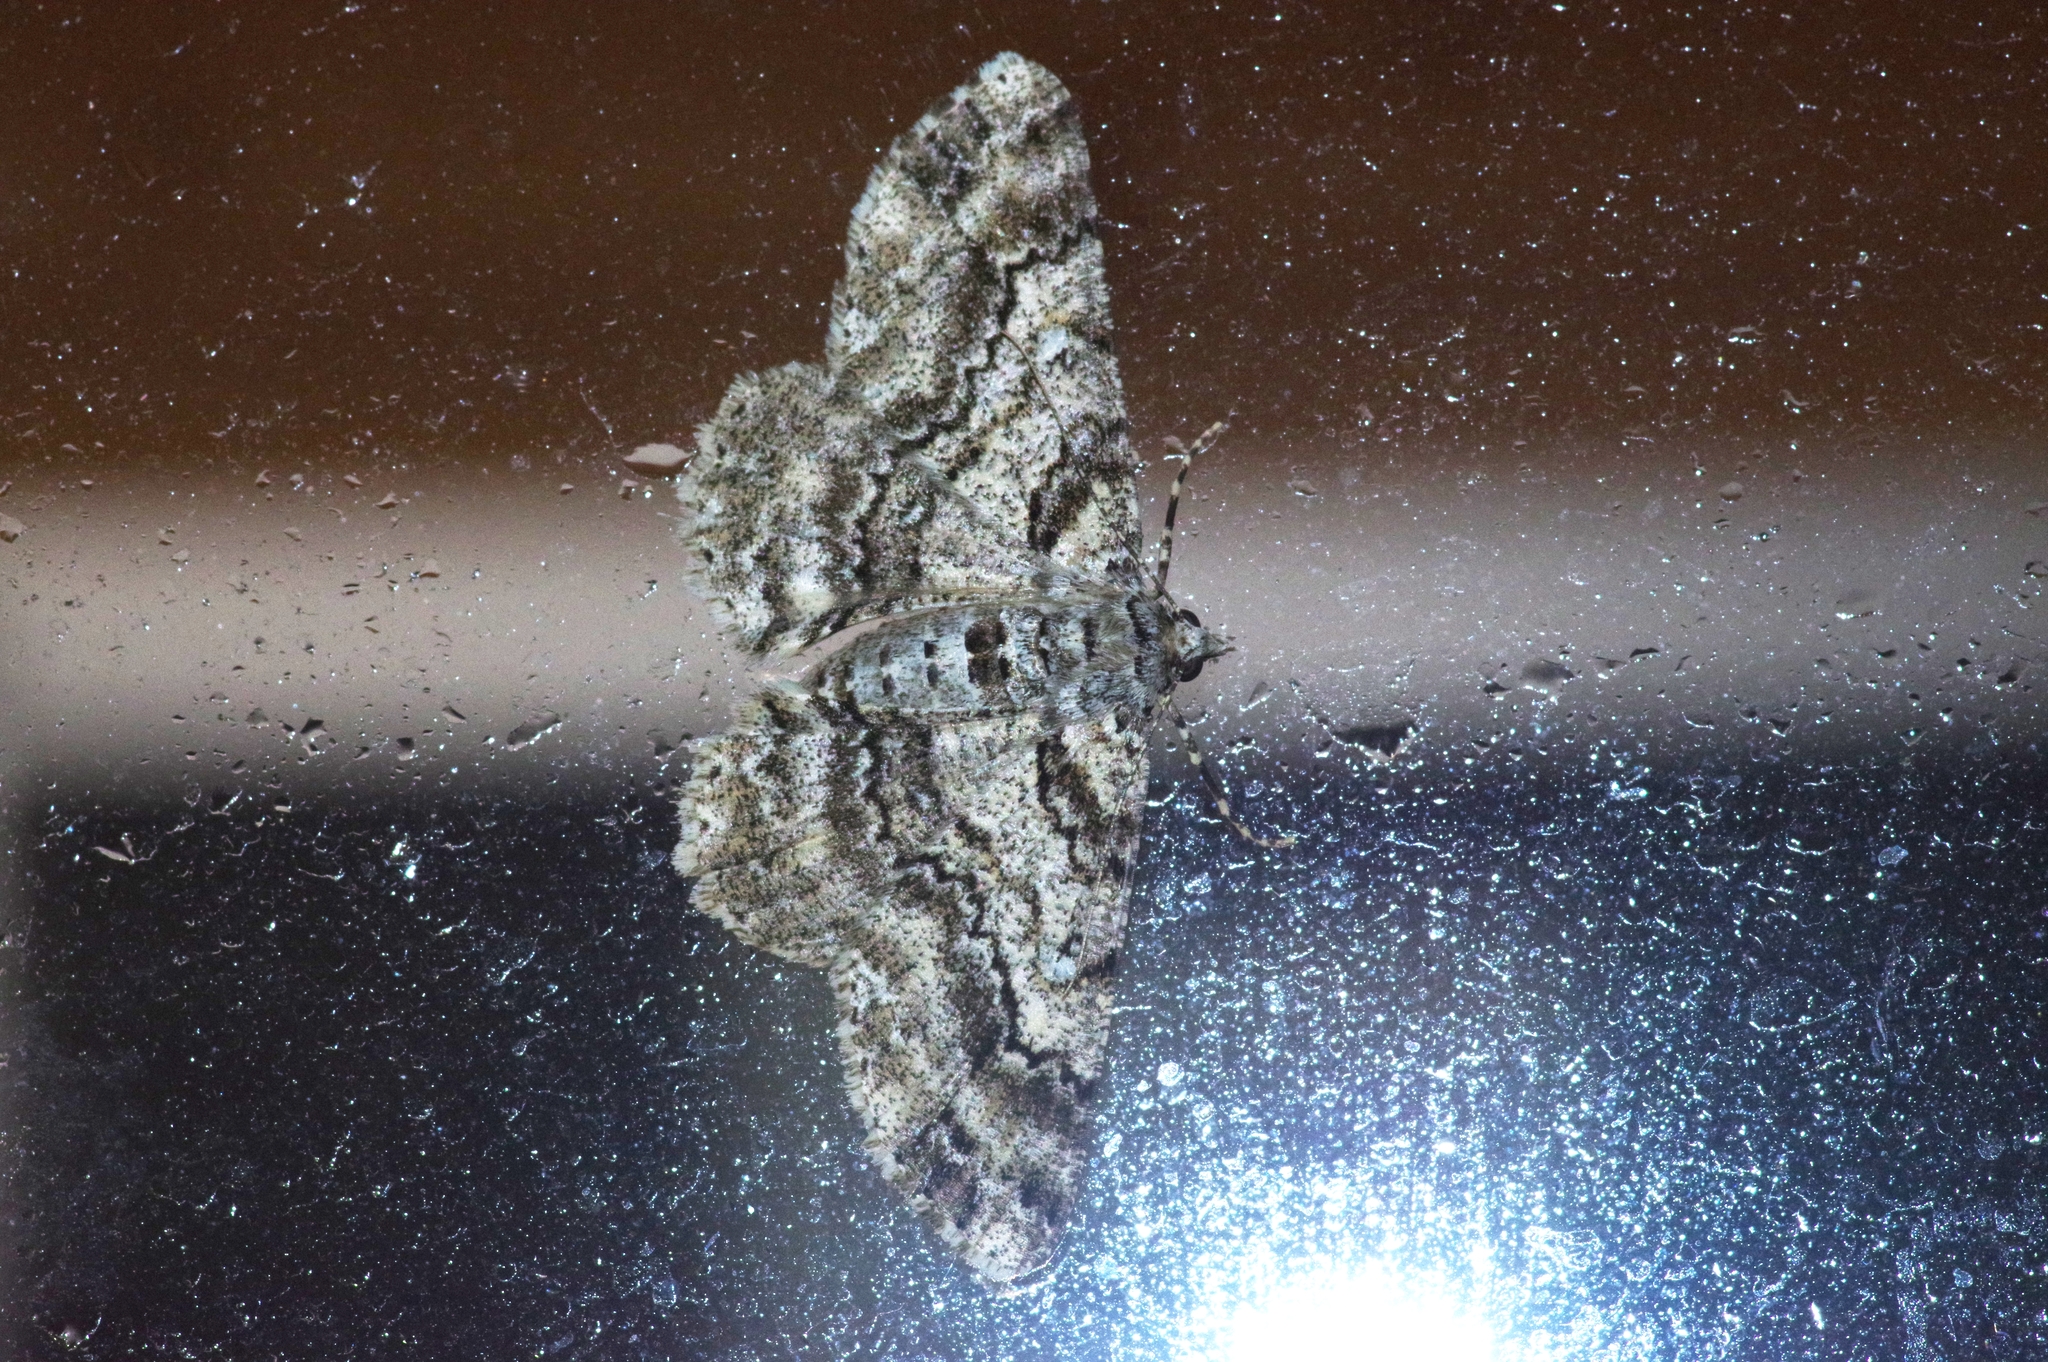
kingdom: Animalia
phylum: Arthropoda
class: Insecta
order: Lepidoptera
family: Geometridae
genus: Cleora
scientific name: Cleora minutaria
